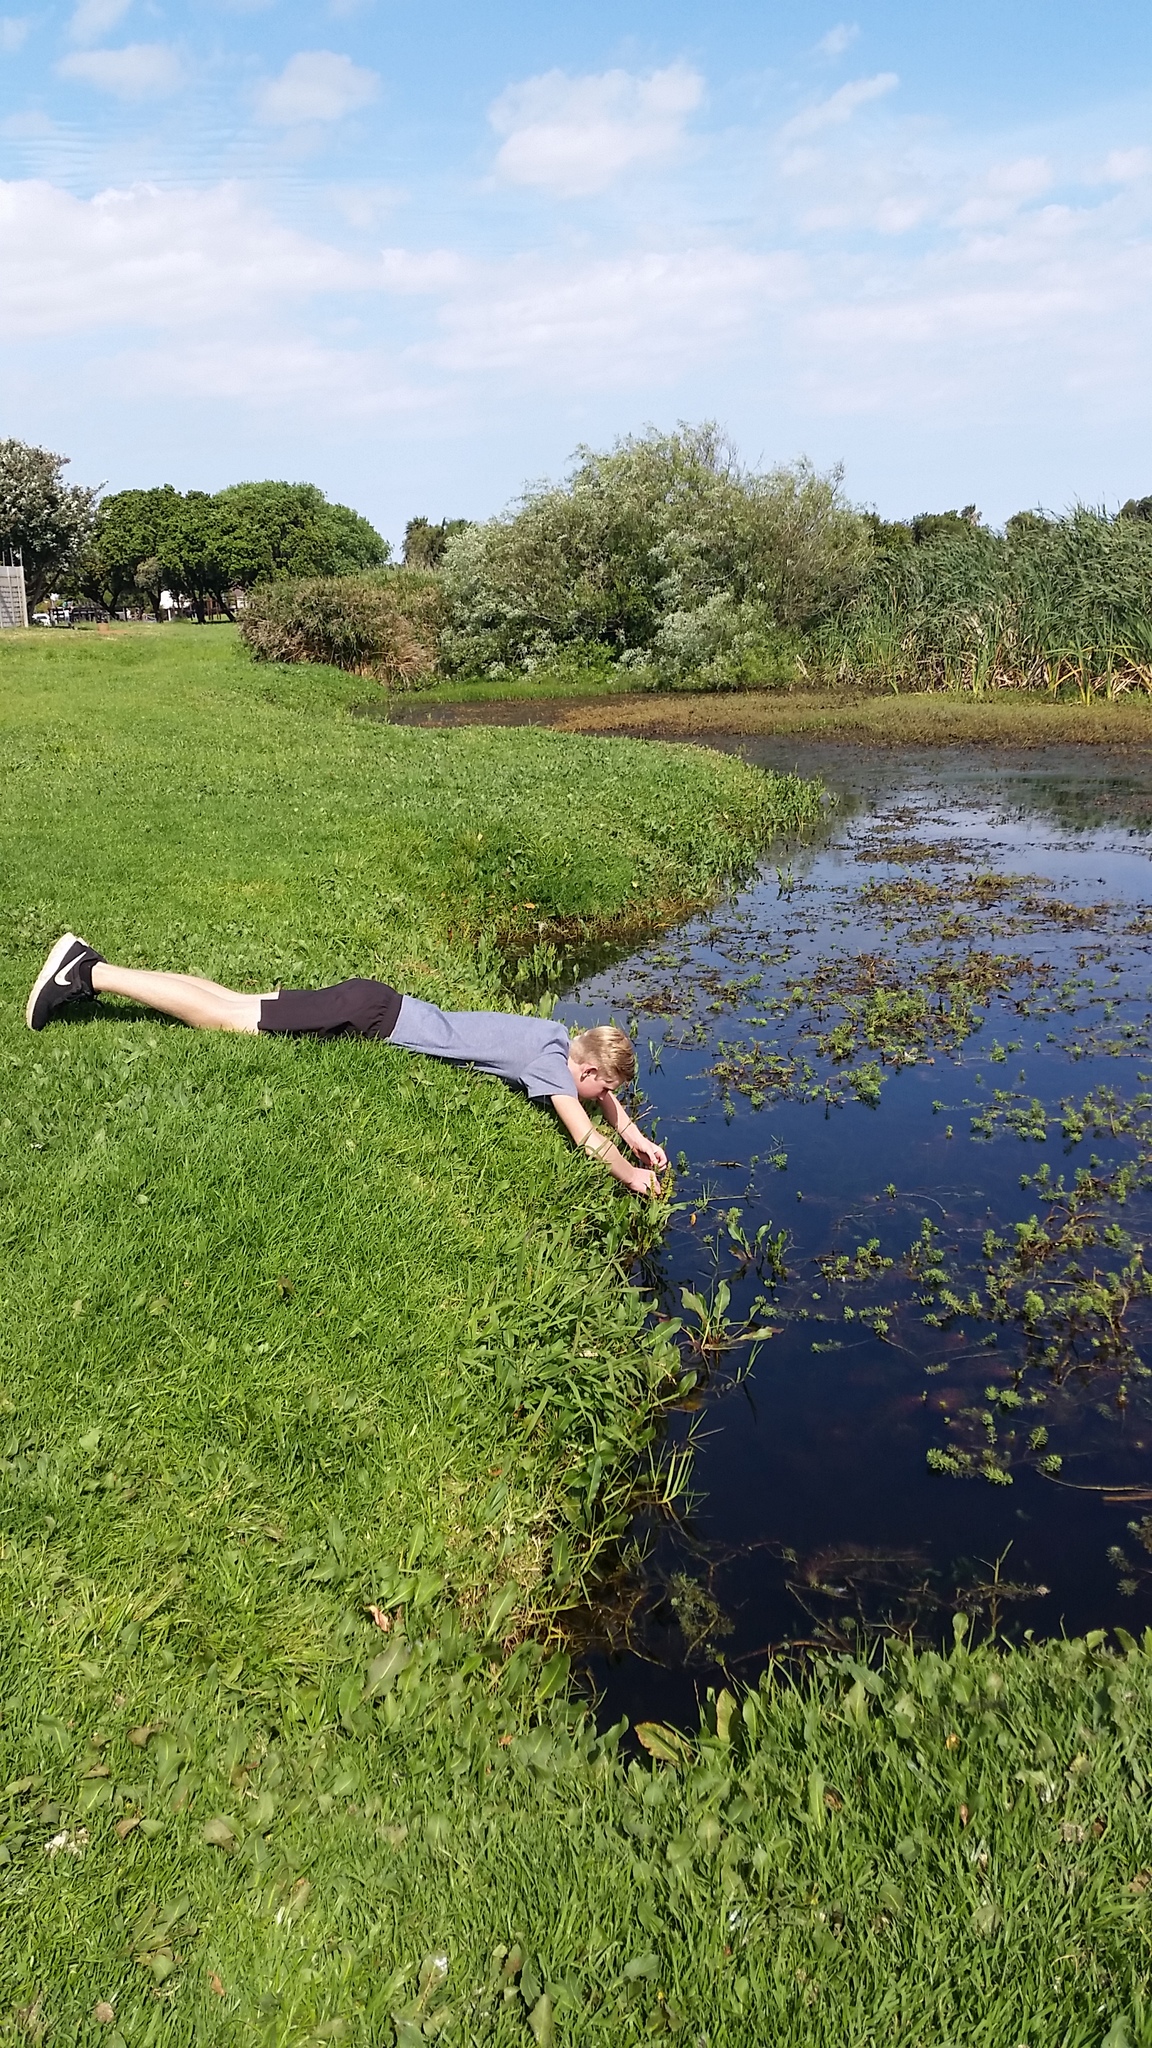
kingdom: Plantae
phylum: Tracheophyta
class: Magnoliopsida
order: Saxifragales
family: Haloragaceae
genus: Myriophyllum
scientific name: Myriophyllum aquaticum
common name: Parrot's feather
